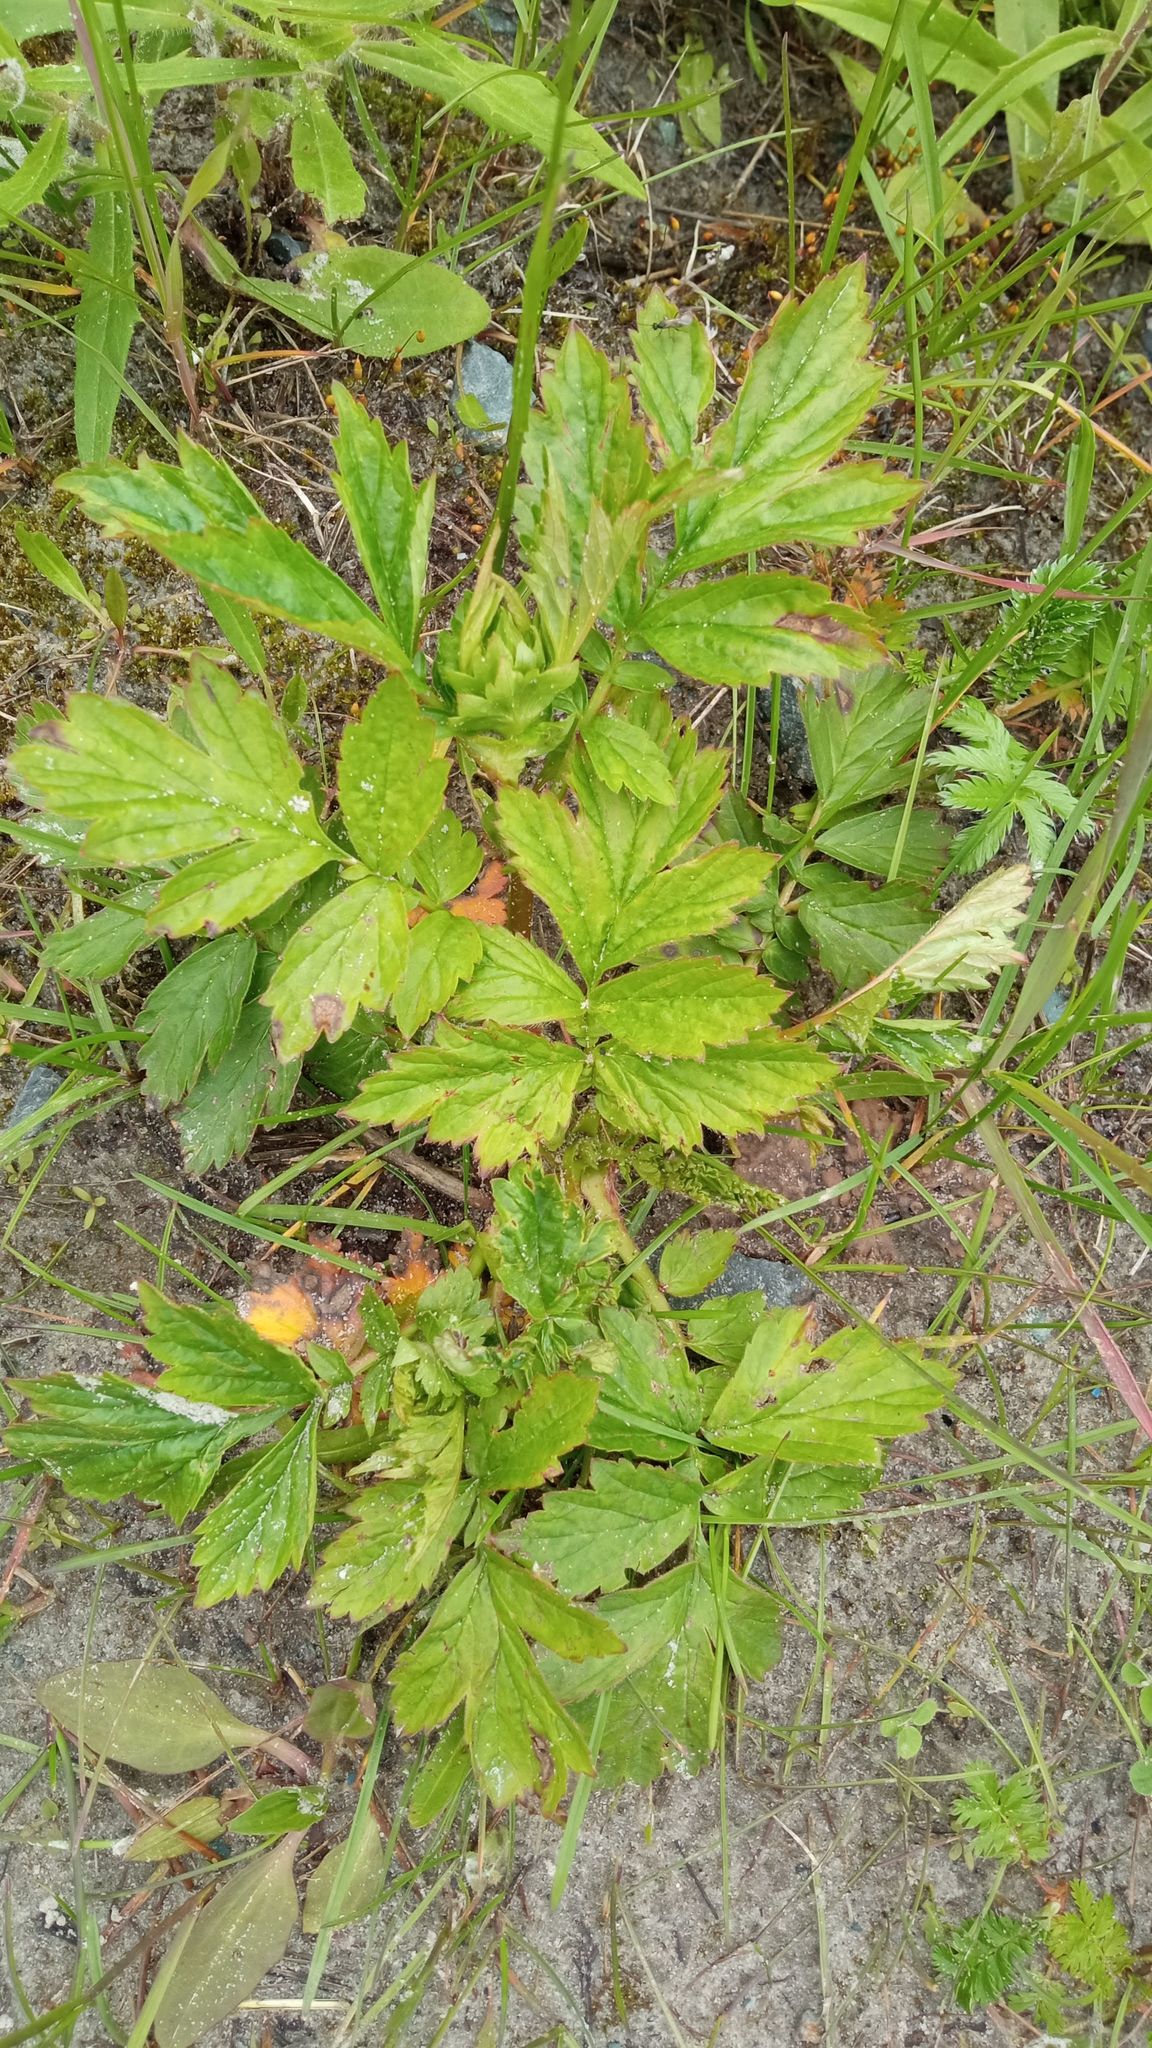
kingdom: Plantae
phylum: Tracheophyta
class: Magnoliopsida
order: Rosales
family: Rosaceae
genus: Geum
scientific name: Geum aleppicum
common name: Yellow avens
